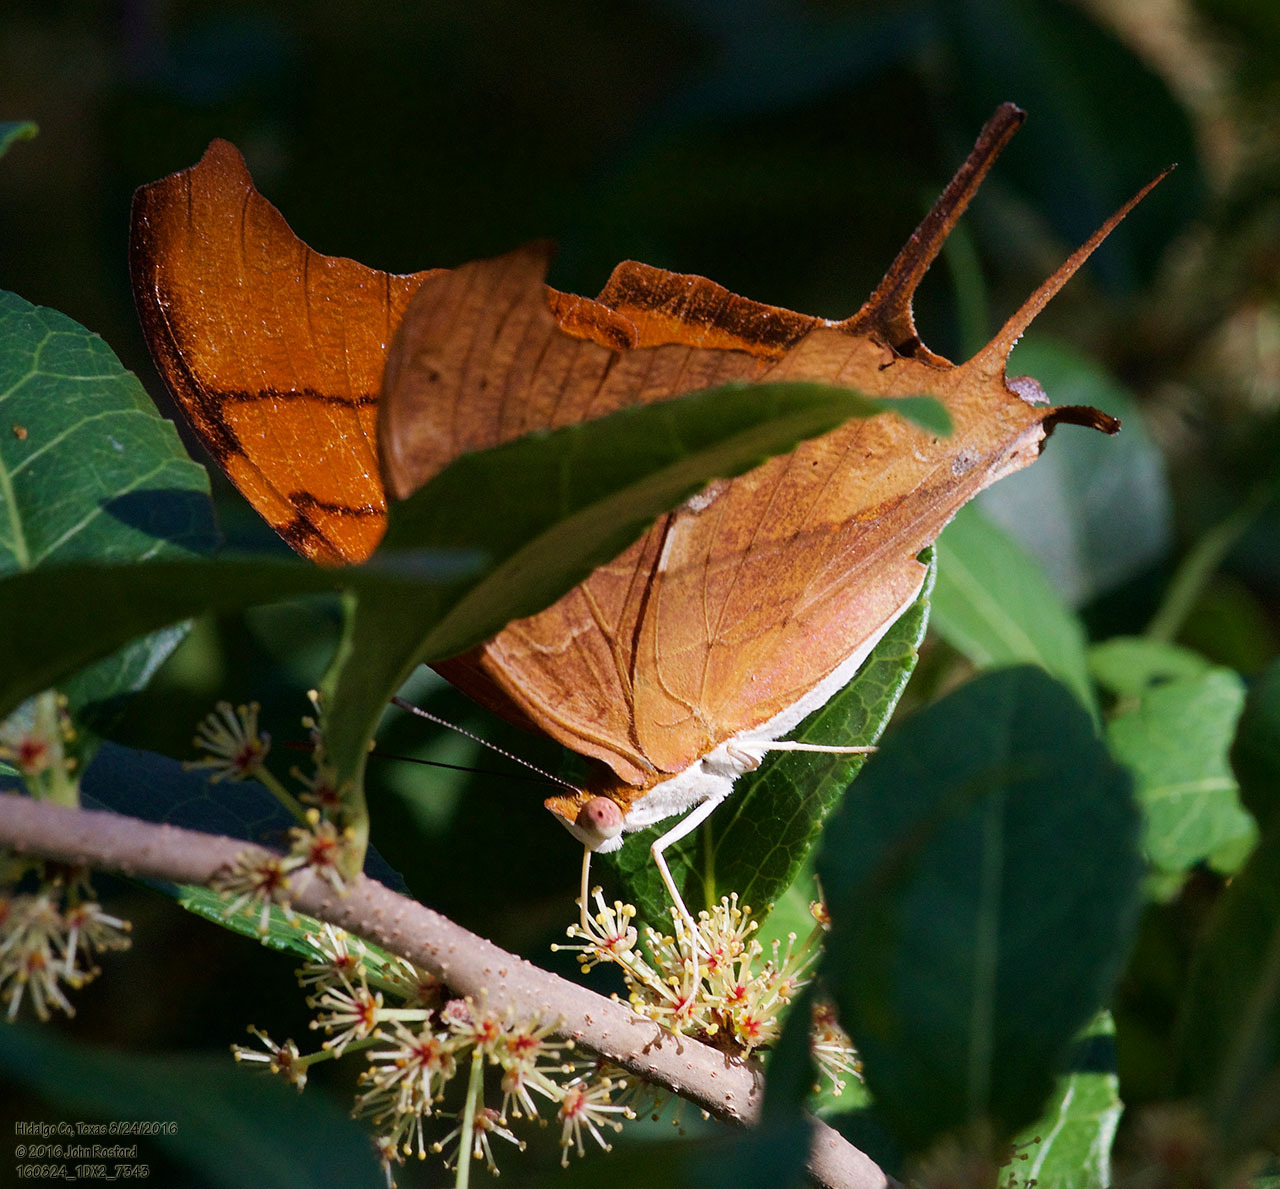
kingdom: Animalia
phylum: Arthropoda
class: Insecta
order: Lepidoptera
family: Nymphalidae
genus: Marpesia
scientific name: Marpesia petreus
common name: Red dagger wing
